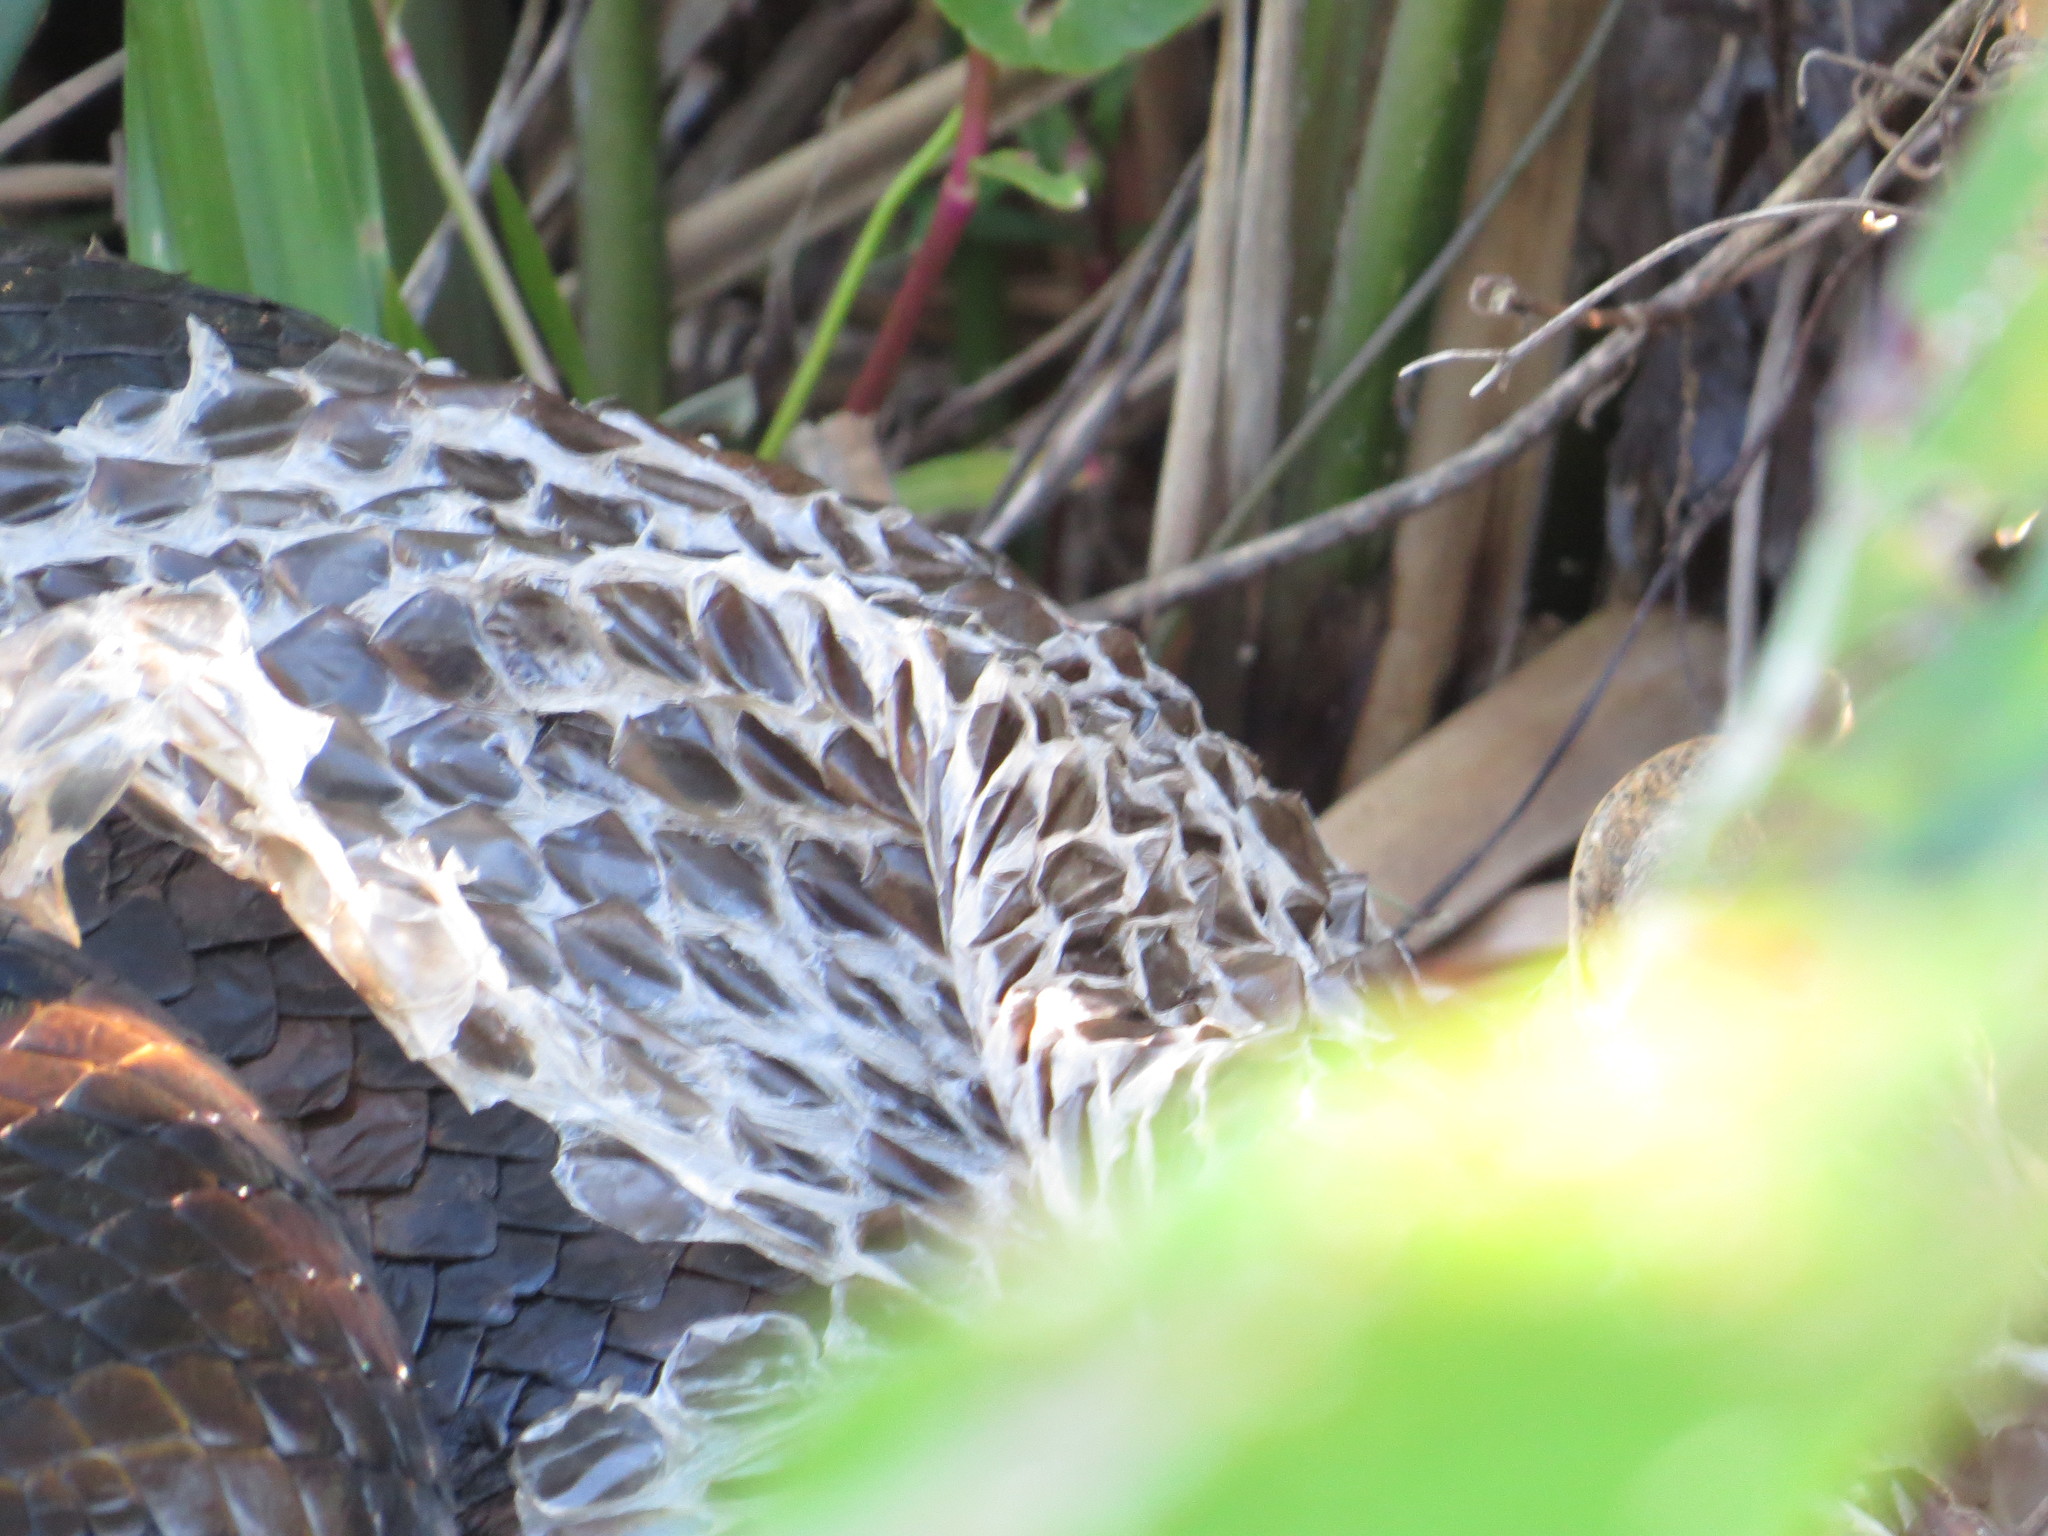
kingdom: Animalia
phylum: Chordata
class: Squamata
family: Boidae
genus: Eunectes
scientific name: Eunectes notaeus
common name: Yellow anaconda
